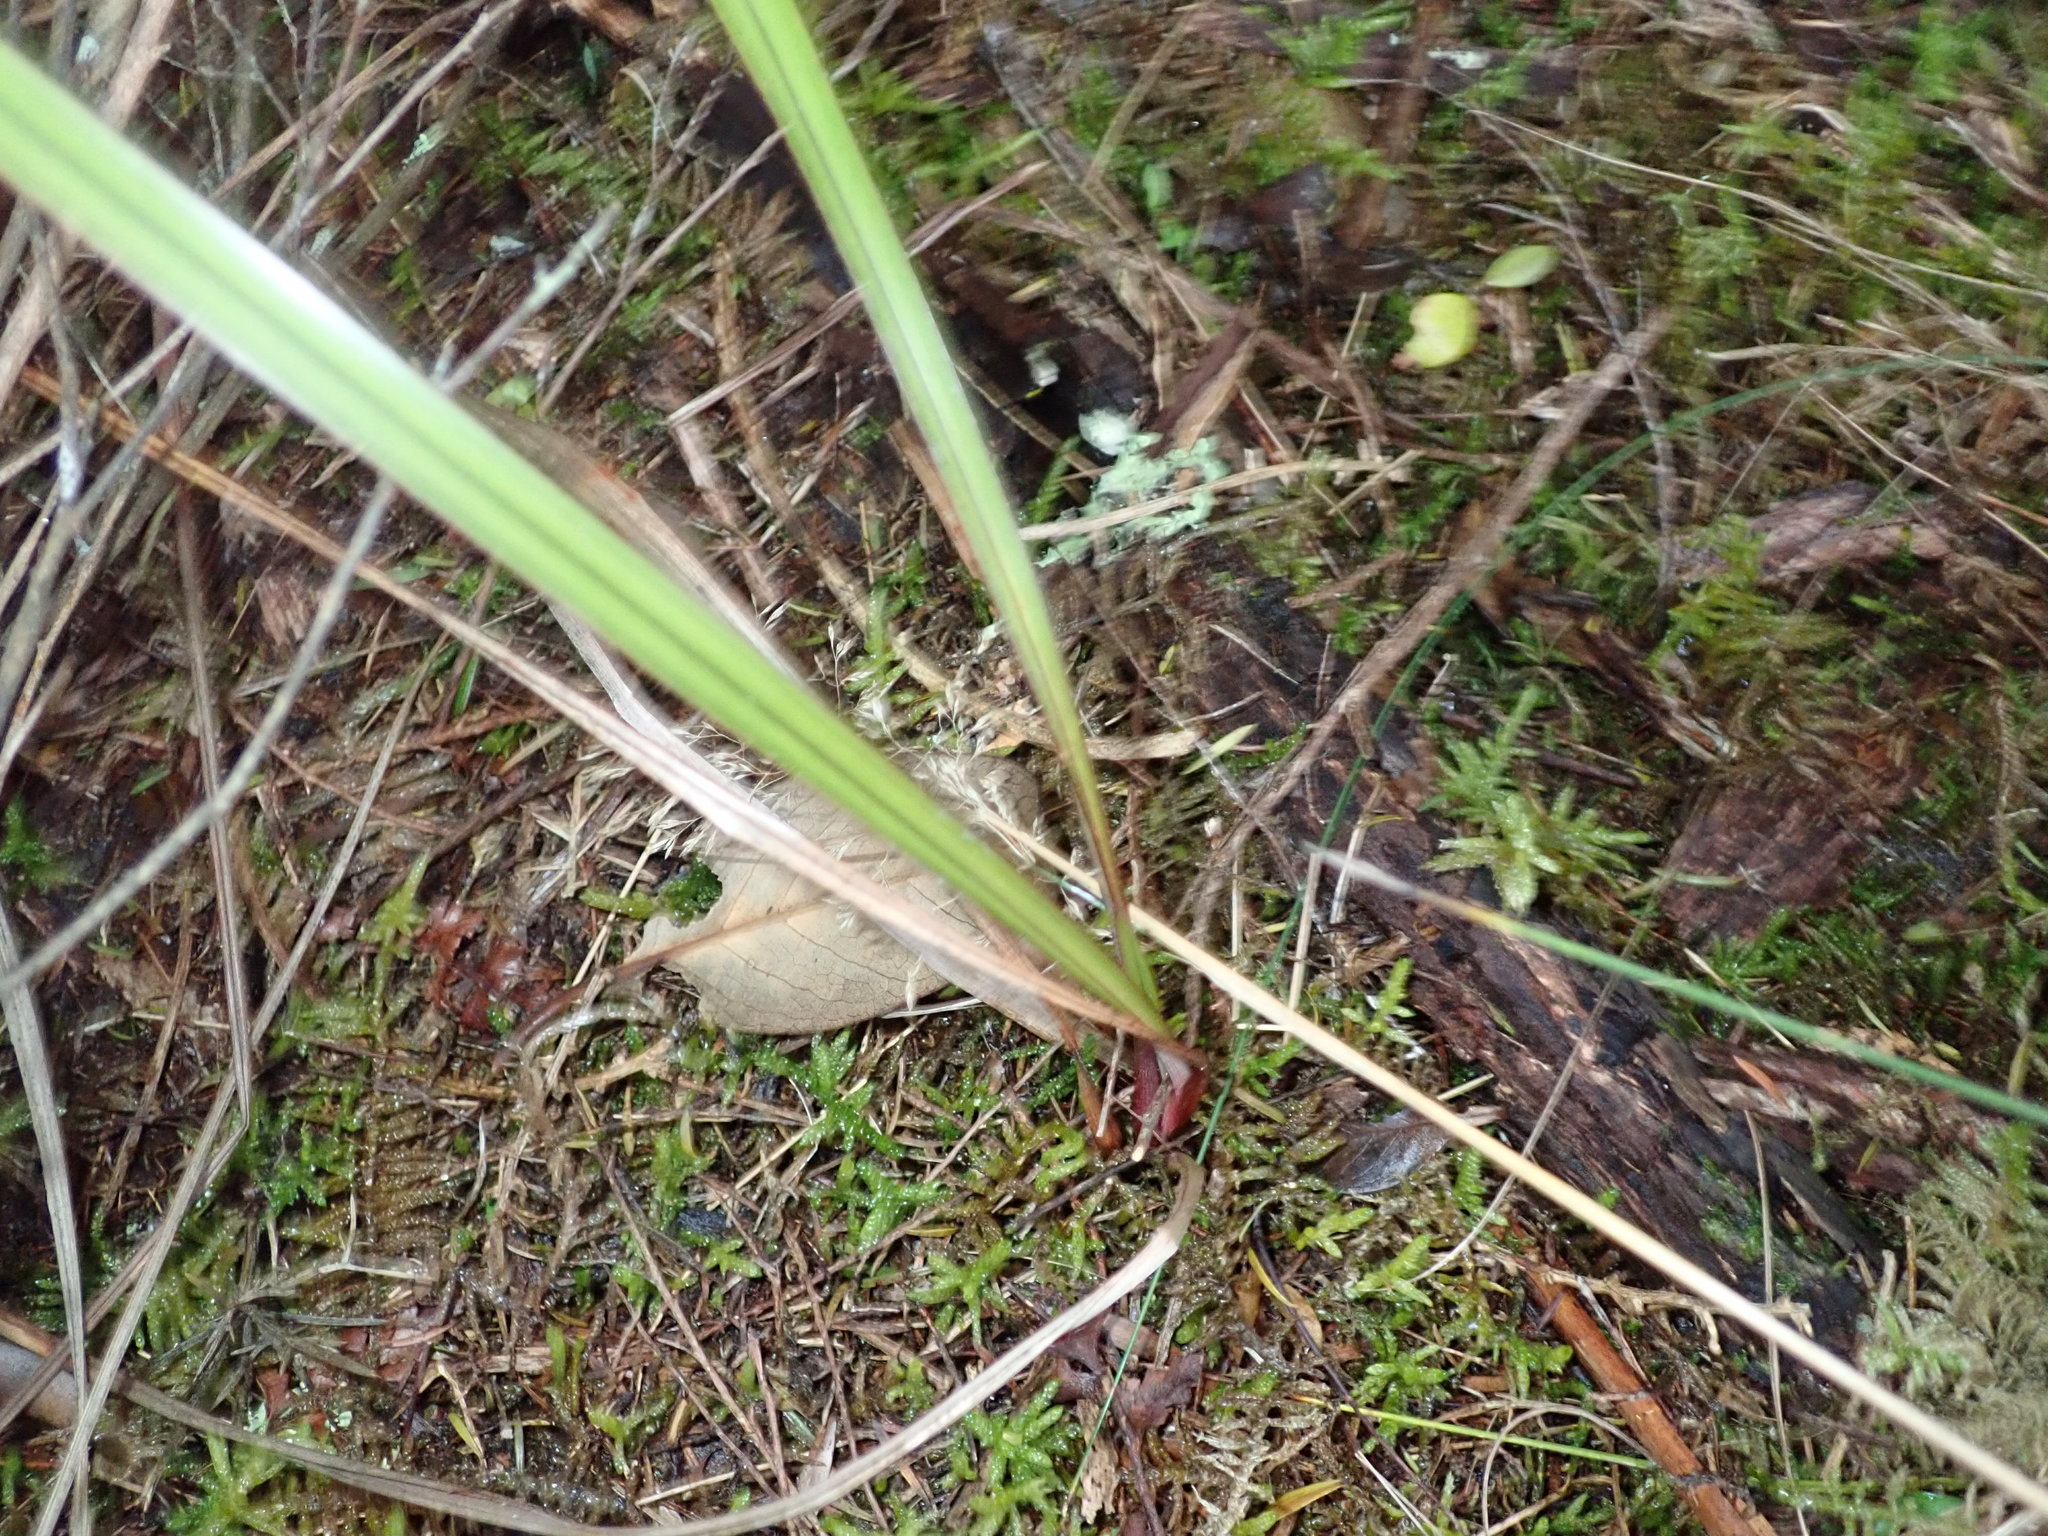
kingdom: Plantae
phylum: Tracheophyta
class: Liliopsida
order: Asparagales
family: Asphodelaceae
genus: Dianella
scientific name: Dianella nigra
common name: New zealand-blueberry
